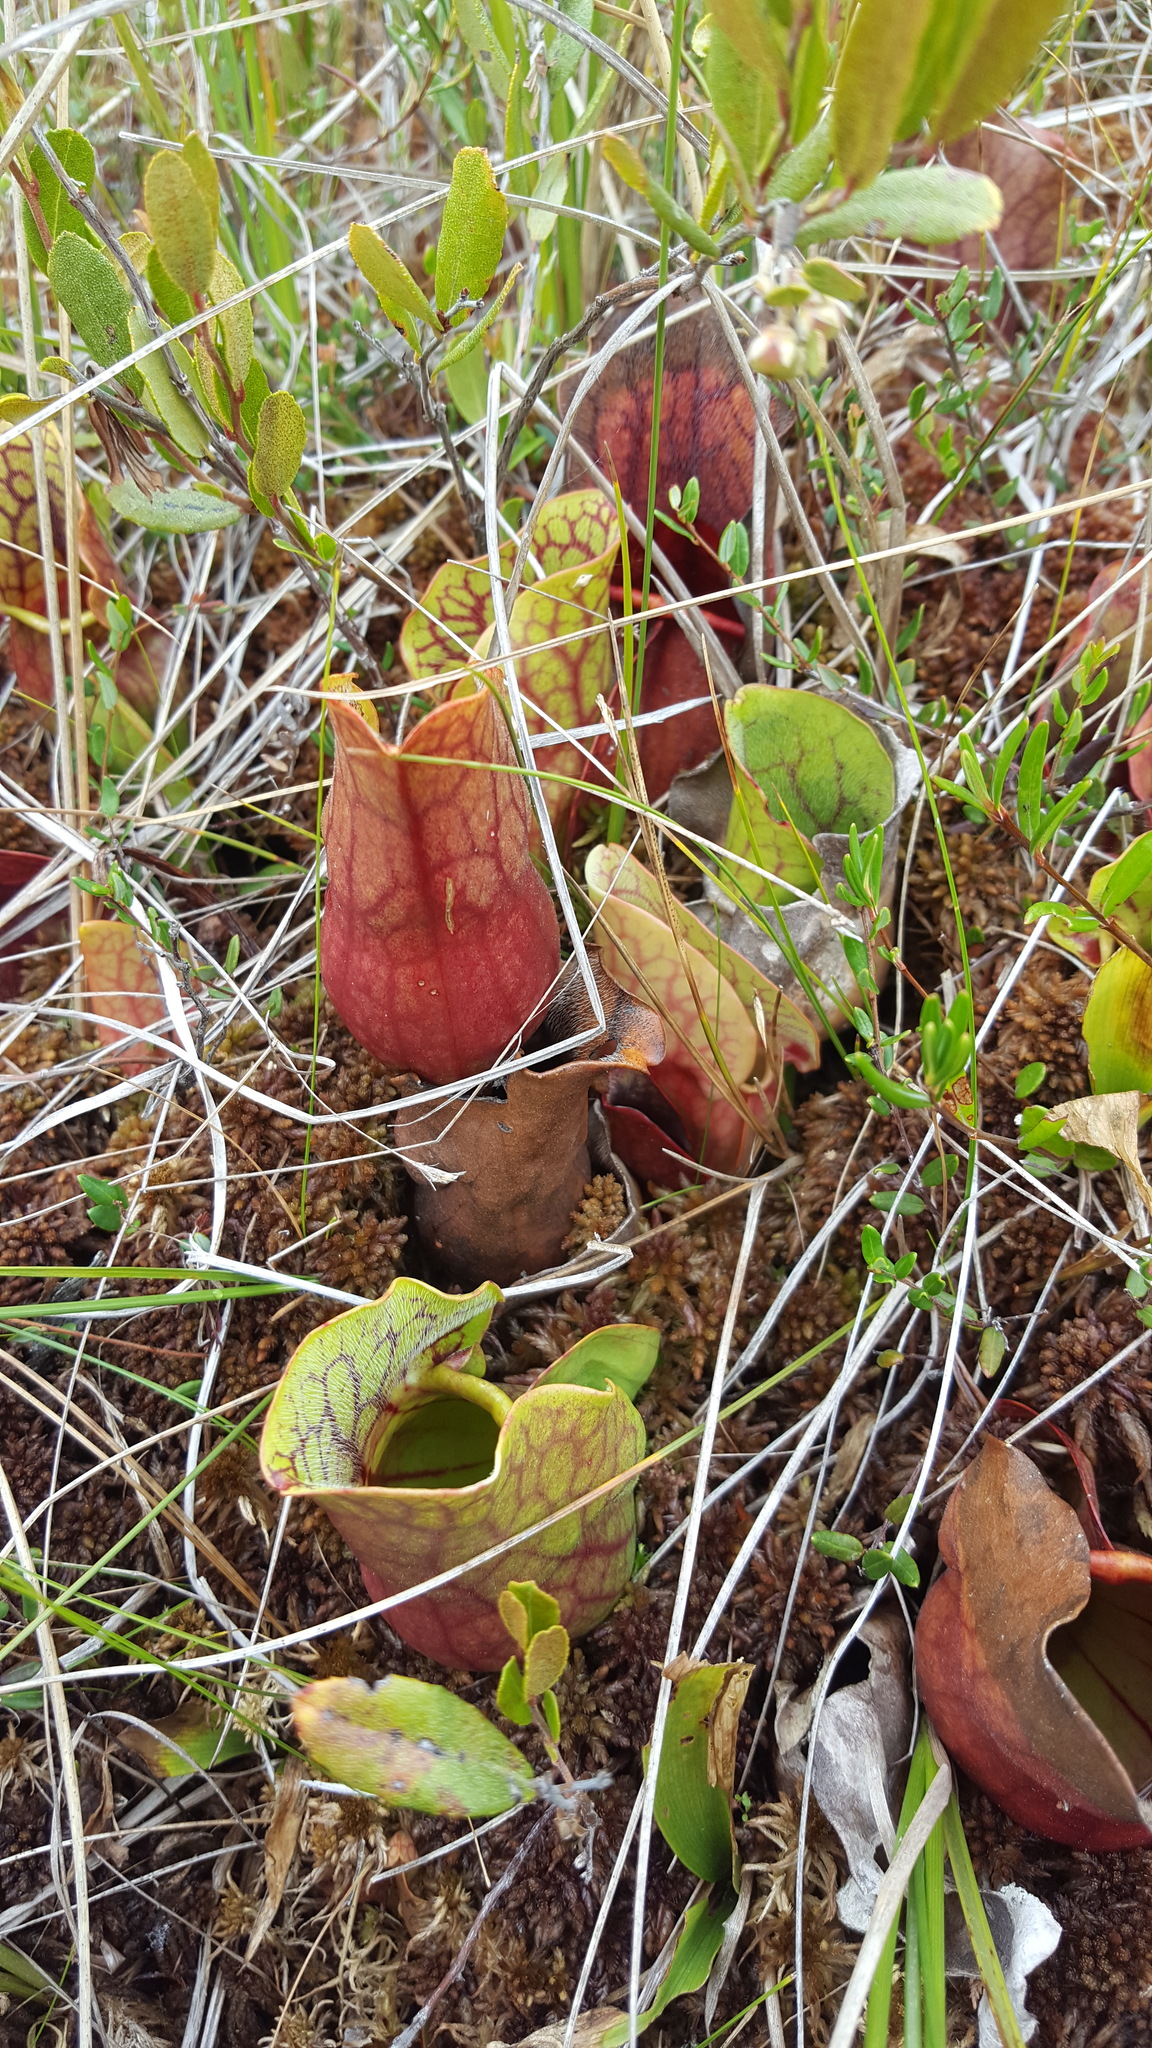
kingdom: Plantae
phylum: Tracheophyta
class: Magnoliopsida
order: Ericales
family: Sarraceniaceae
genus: Sarracenia
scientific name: Sarracenia purpurea
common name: Pitcherplant
